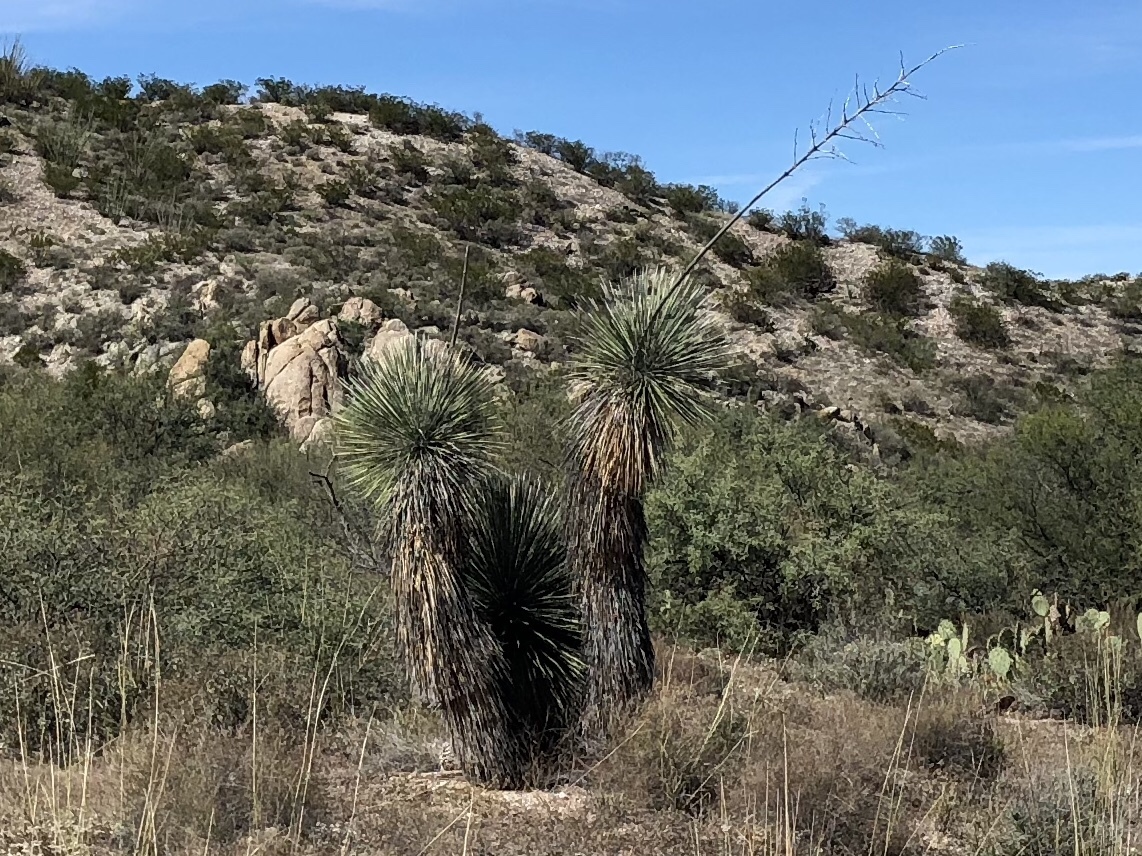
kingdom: Plantae
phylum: Tracheophyta
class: Liliopsida
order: Asparagales
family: Asparagaceae
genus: Yucca
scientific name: Yucca elata
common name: Palmella
